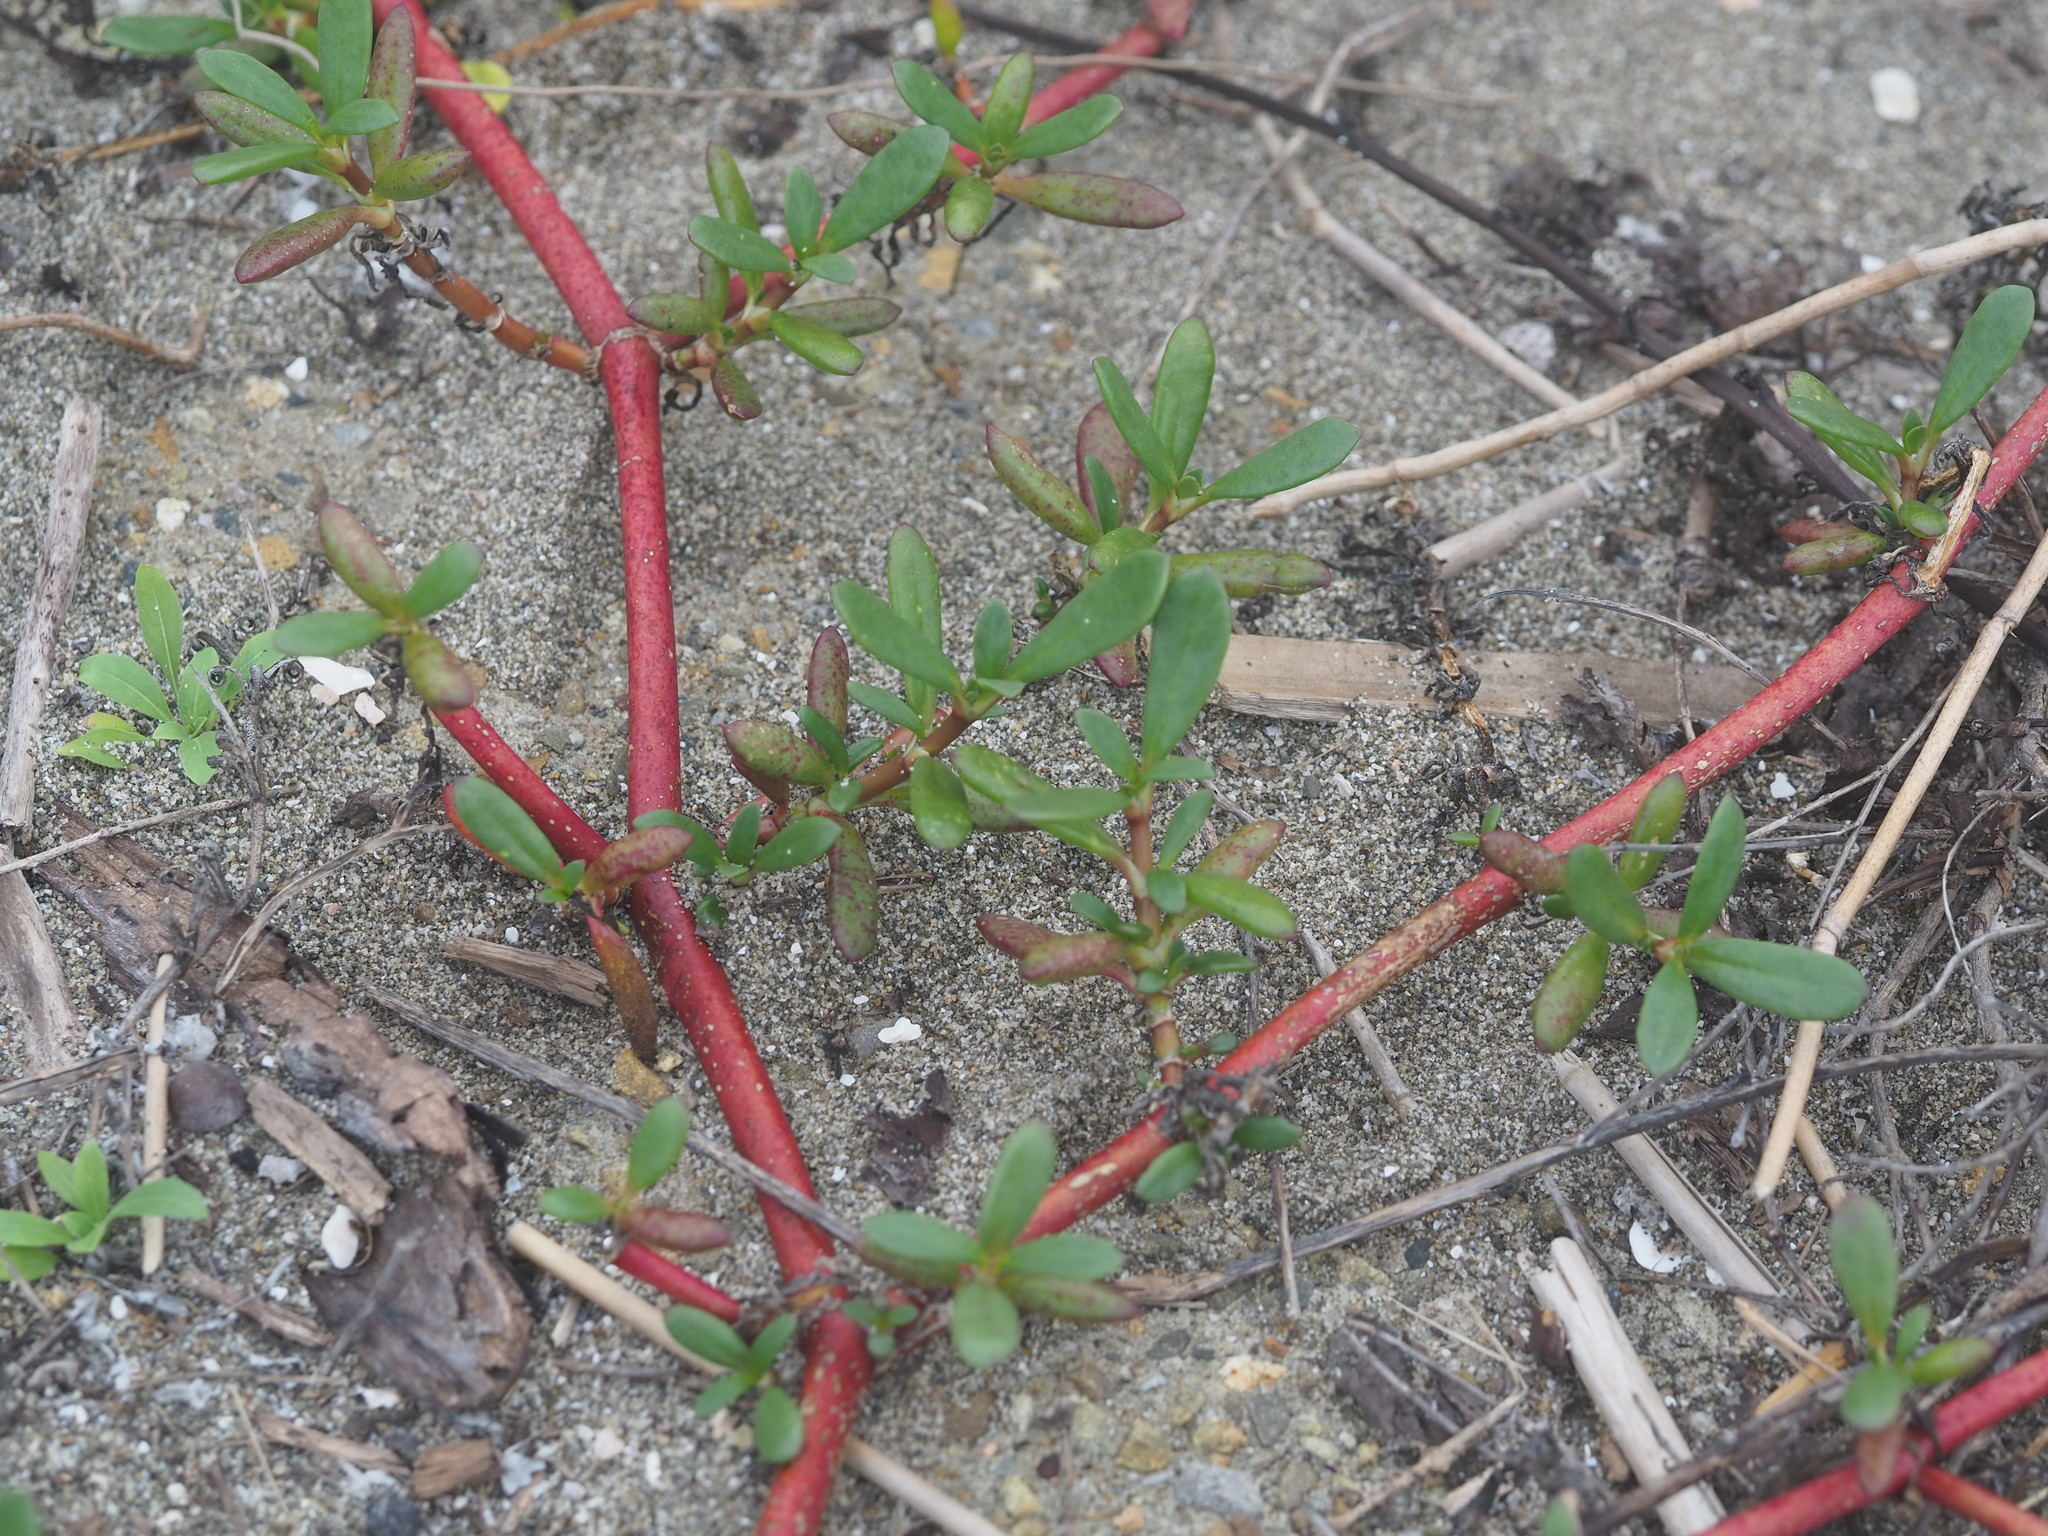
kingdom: Plantae
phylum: Tracheophyta
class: Magnoliopsida
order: Caryophyllales
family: Aizoaceae
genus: Sesuvium
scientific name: Sesuvium portulacastrum
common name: Sea-purslane
